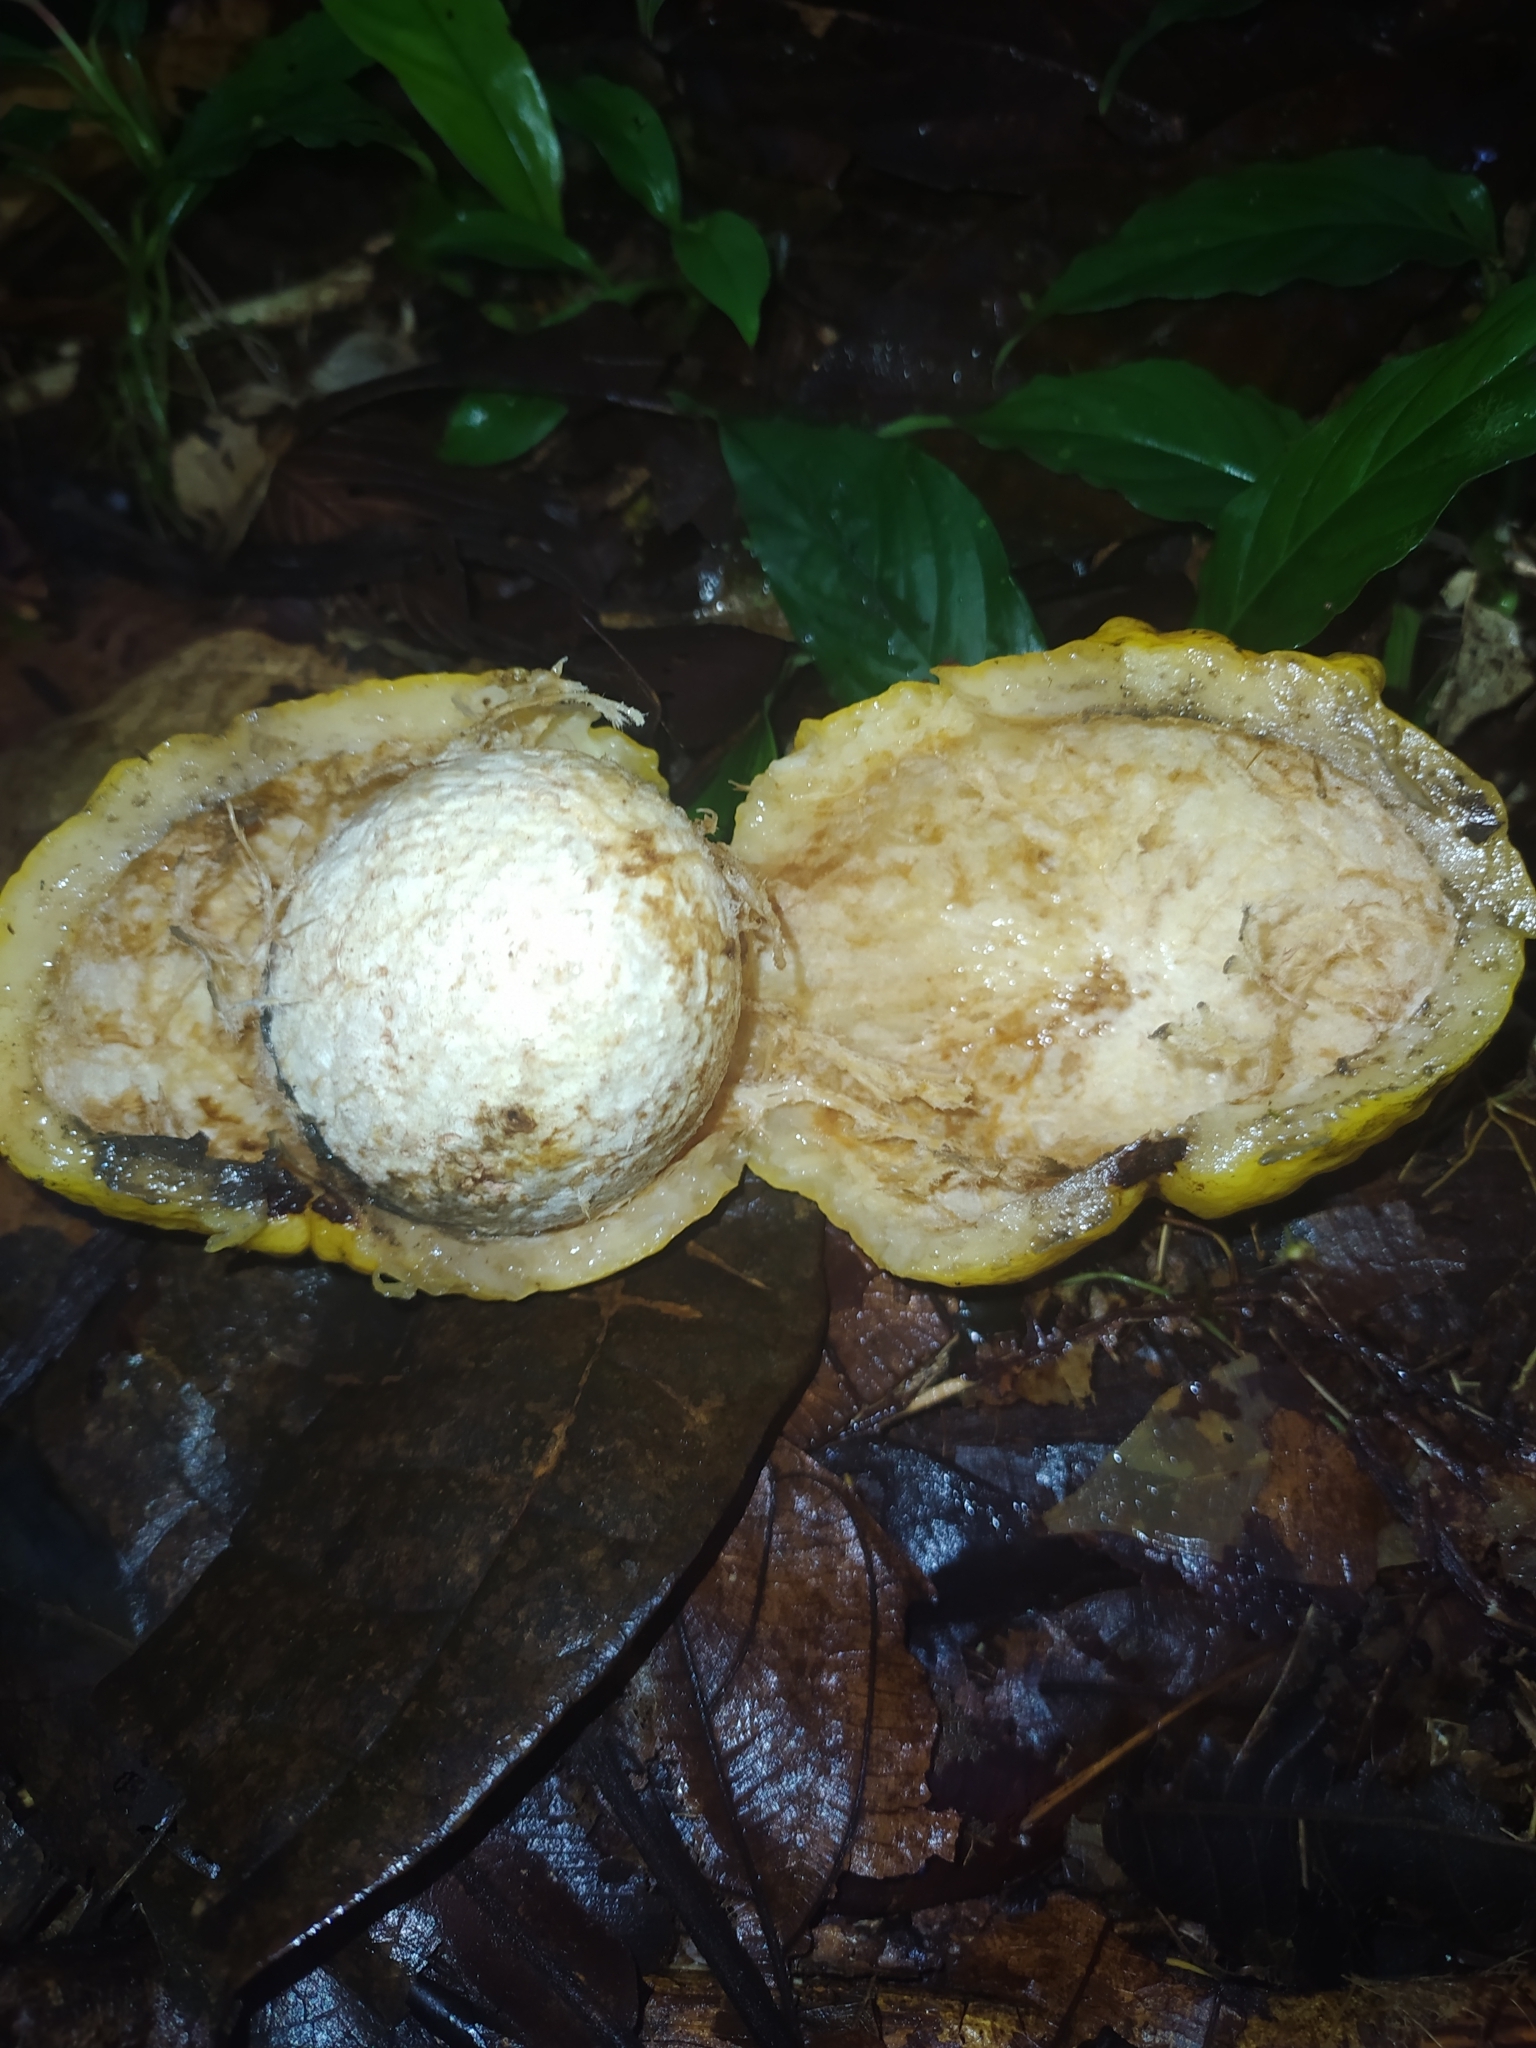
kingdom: Plantae
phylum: Tracheophyta
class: Magnoliopsida
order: Myrtales
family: Myrtaceae
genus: Eugenia
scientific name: Eugenia gongylocarpa
